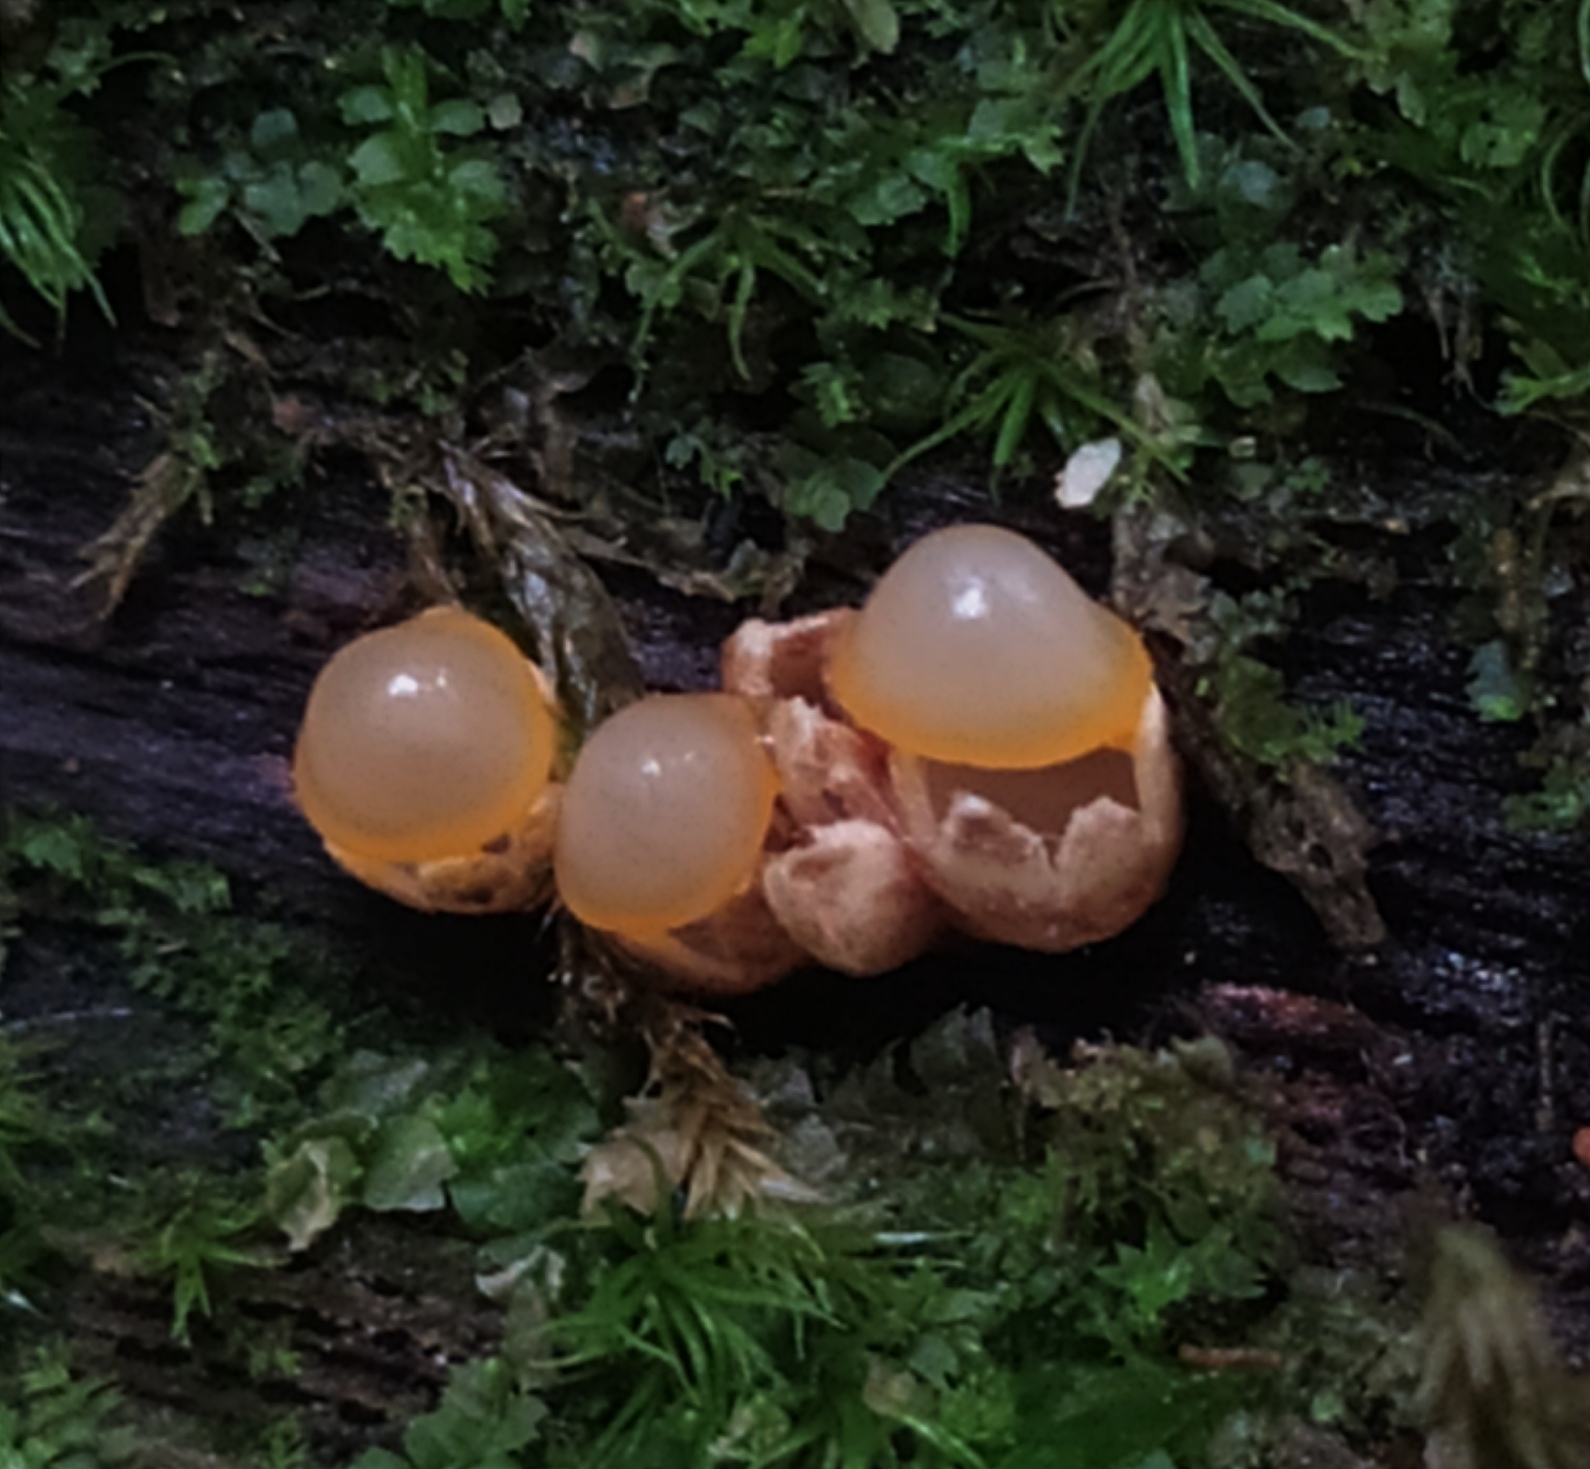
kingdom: Fungi
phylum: Basidiomycota
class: Agaricomycetes
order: Geastrales
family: Geastraceae
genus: Sphaerobolus
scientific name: Sphaerobolus stellatus
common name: Cannon fungus
